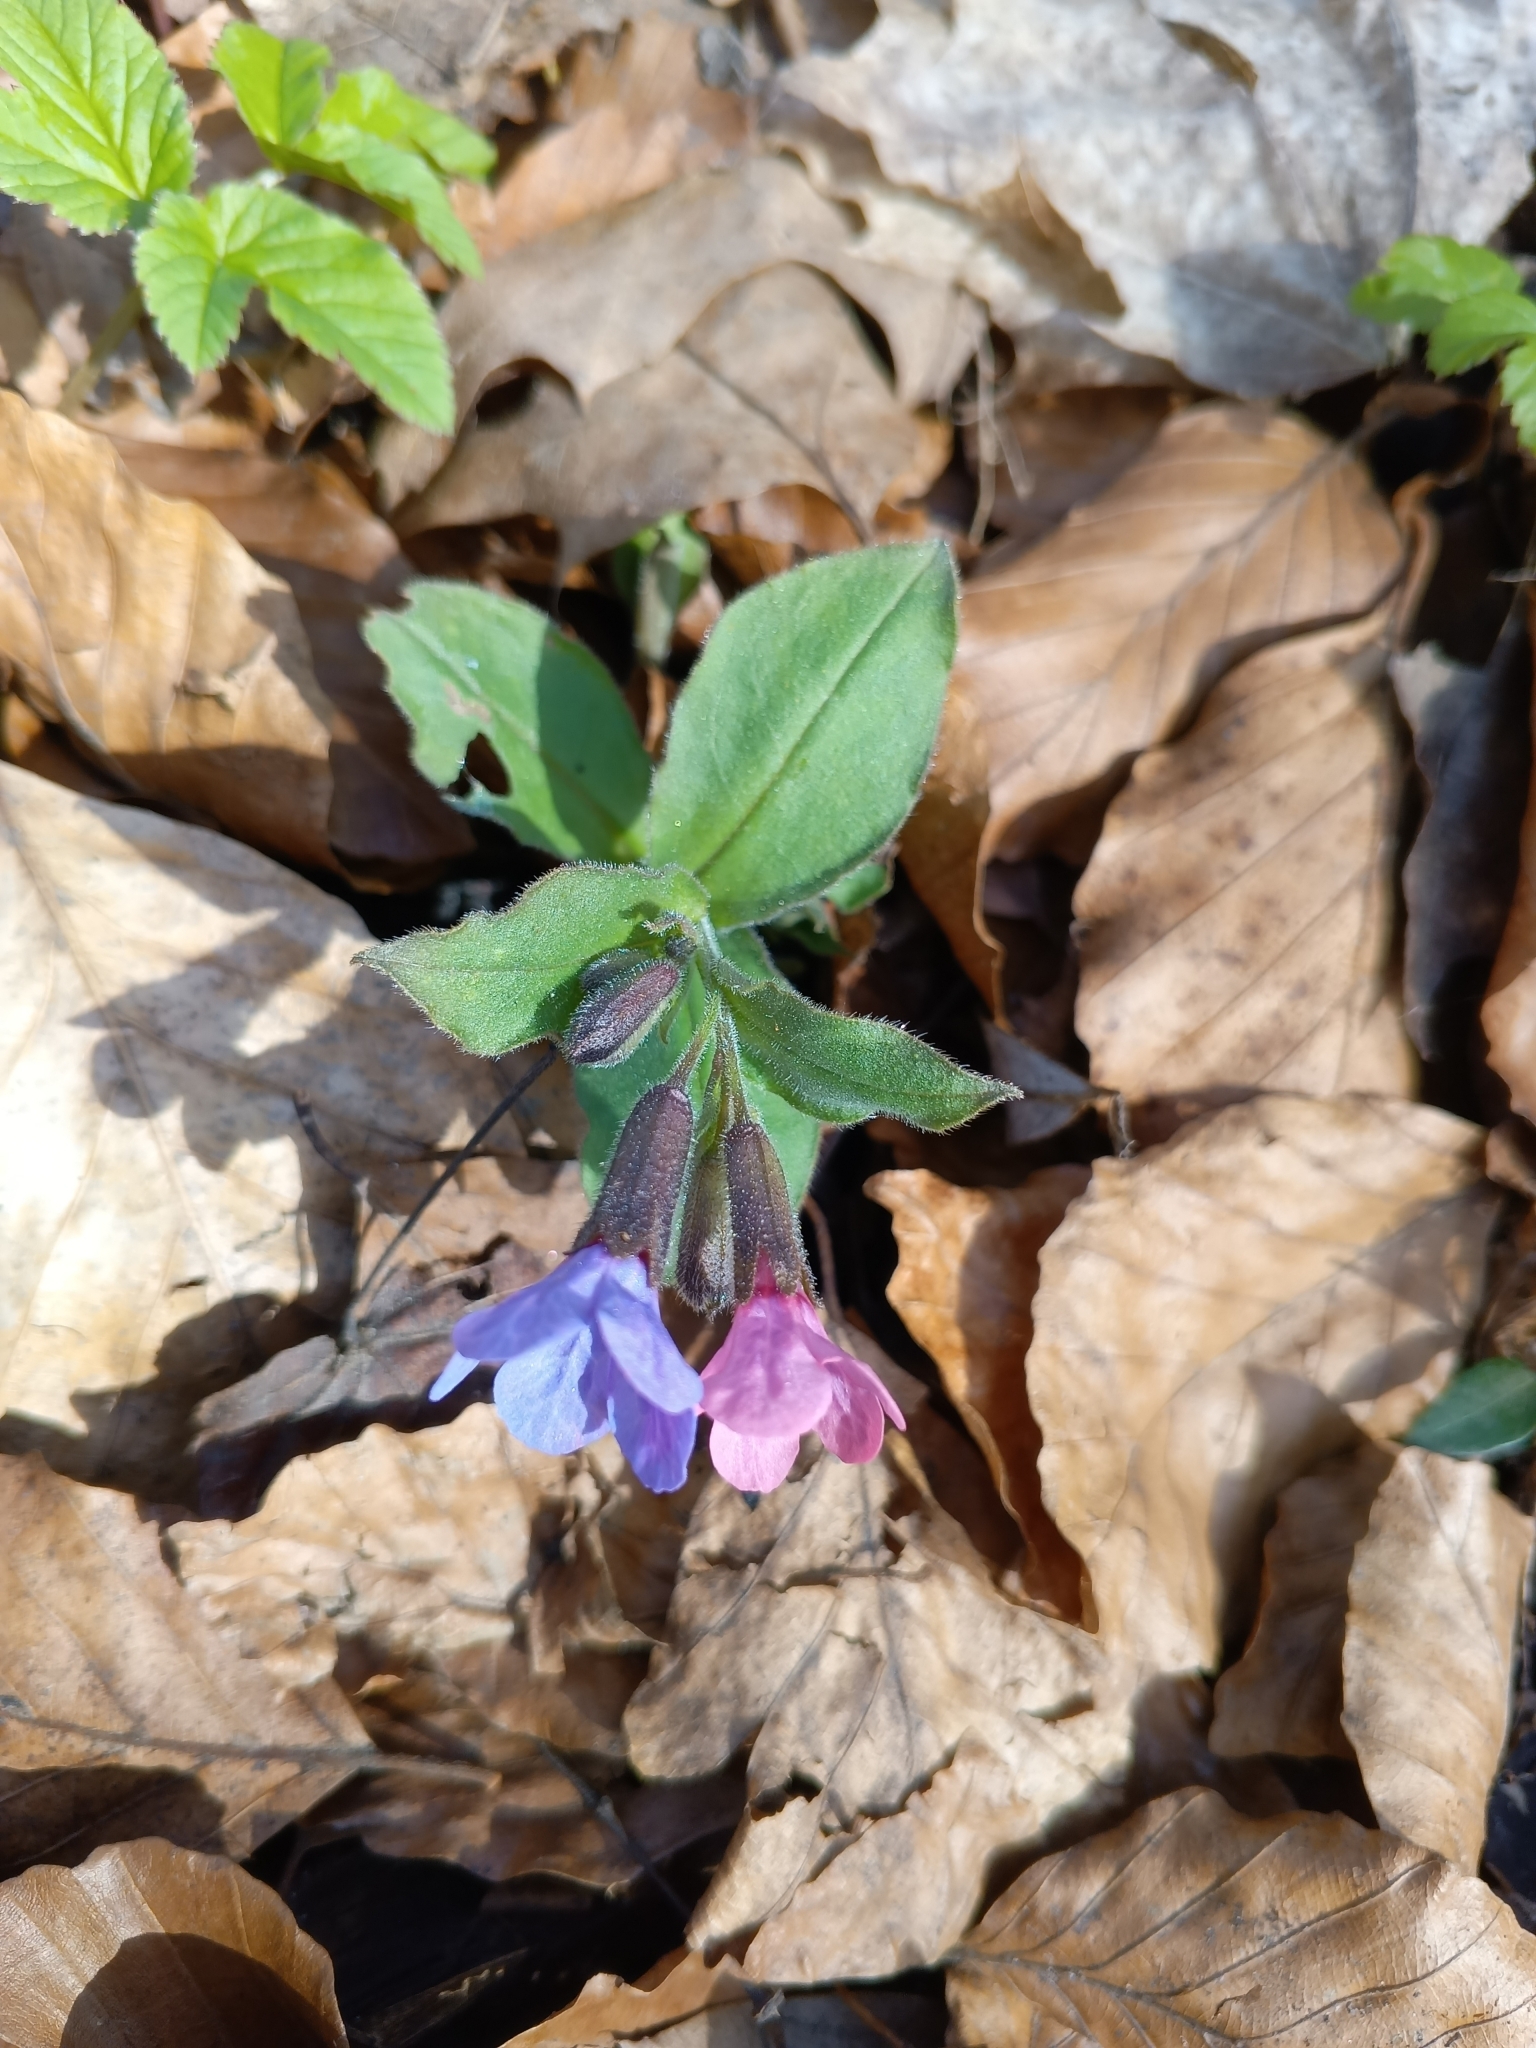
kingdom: Plantae
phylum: Tracheophyta
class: Magnoliopsida
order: Boraginales
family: Boraginaceae
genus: Pulmonaria
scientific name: Pulmonaria obscura
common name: Suffolk lungwort
